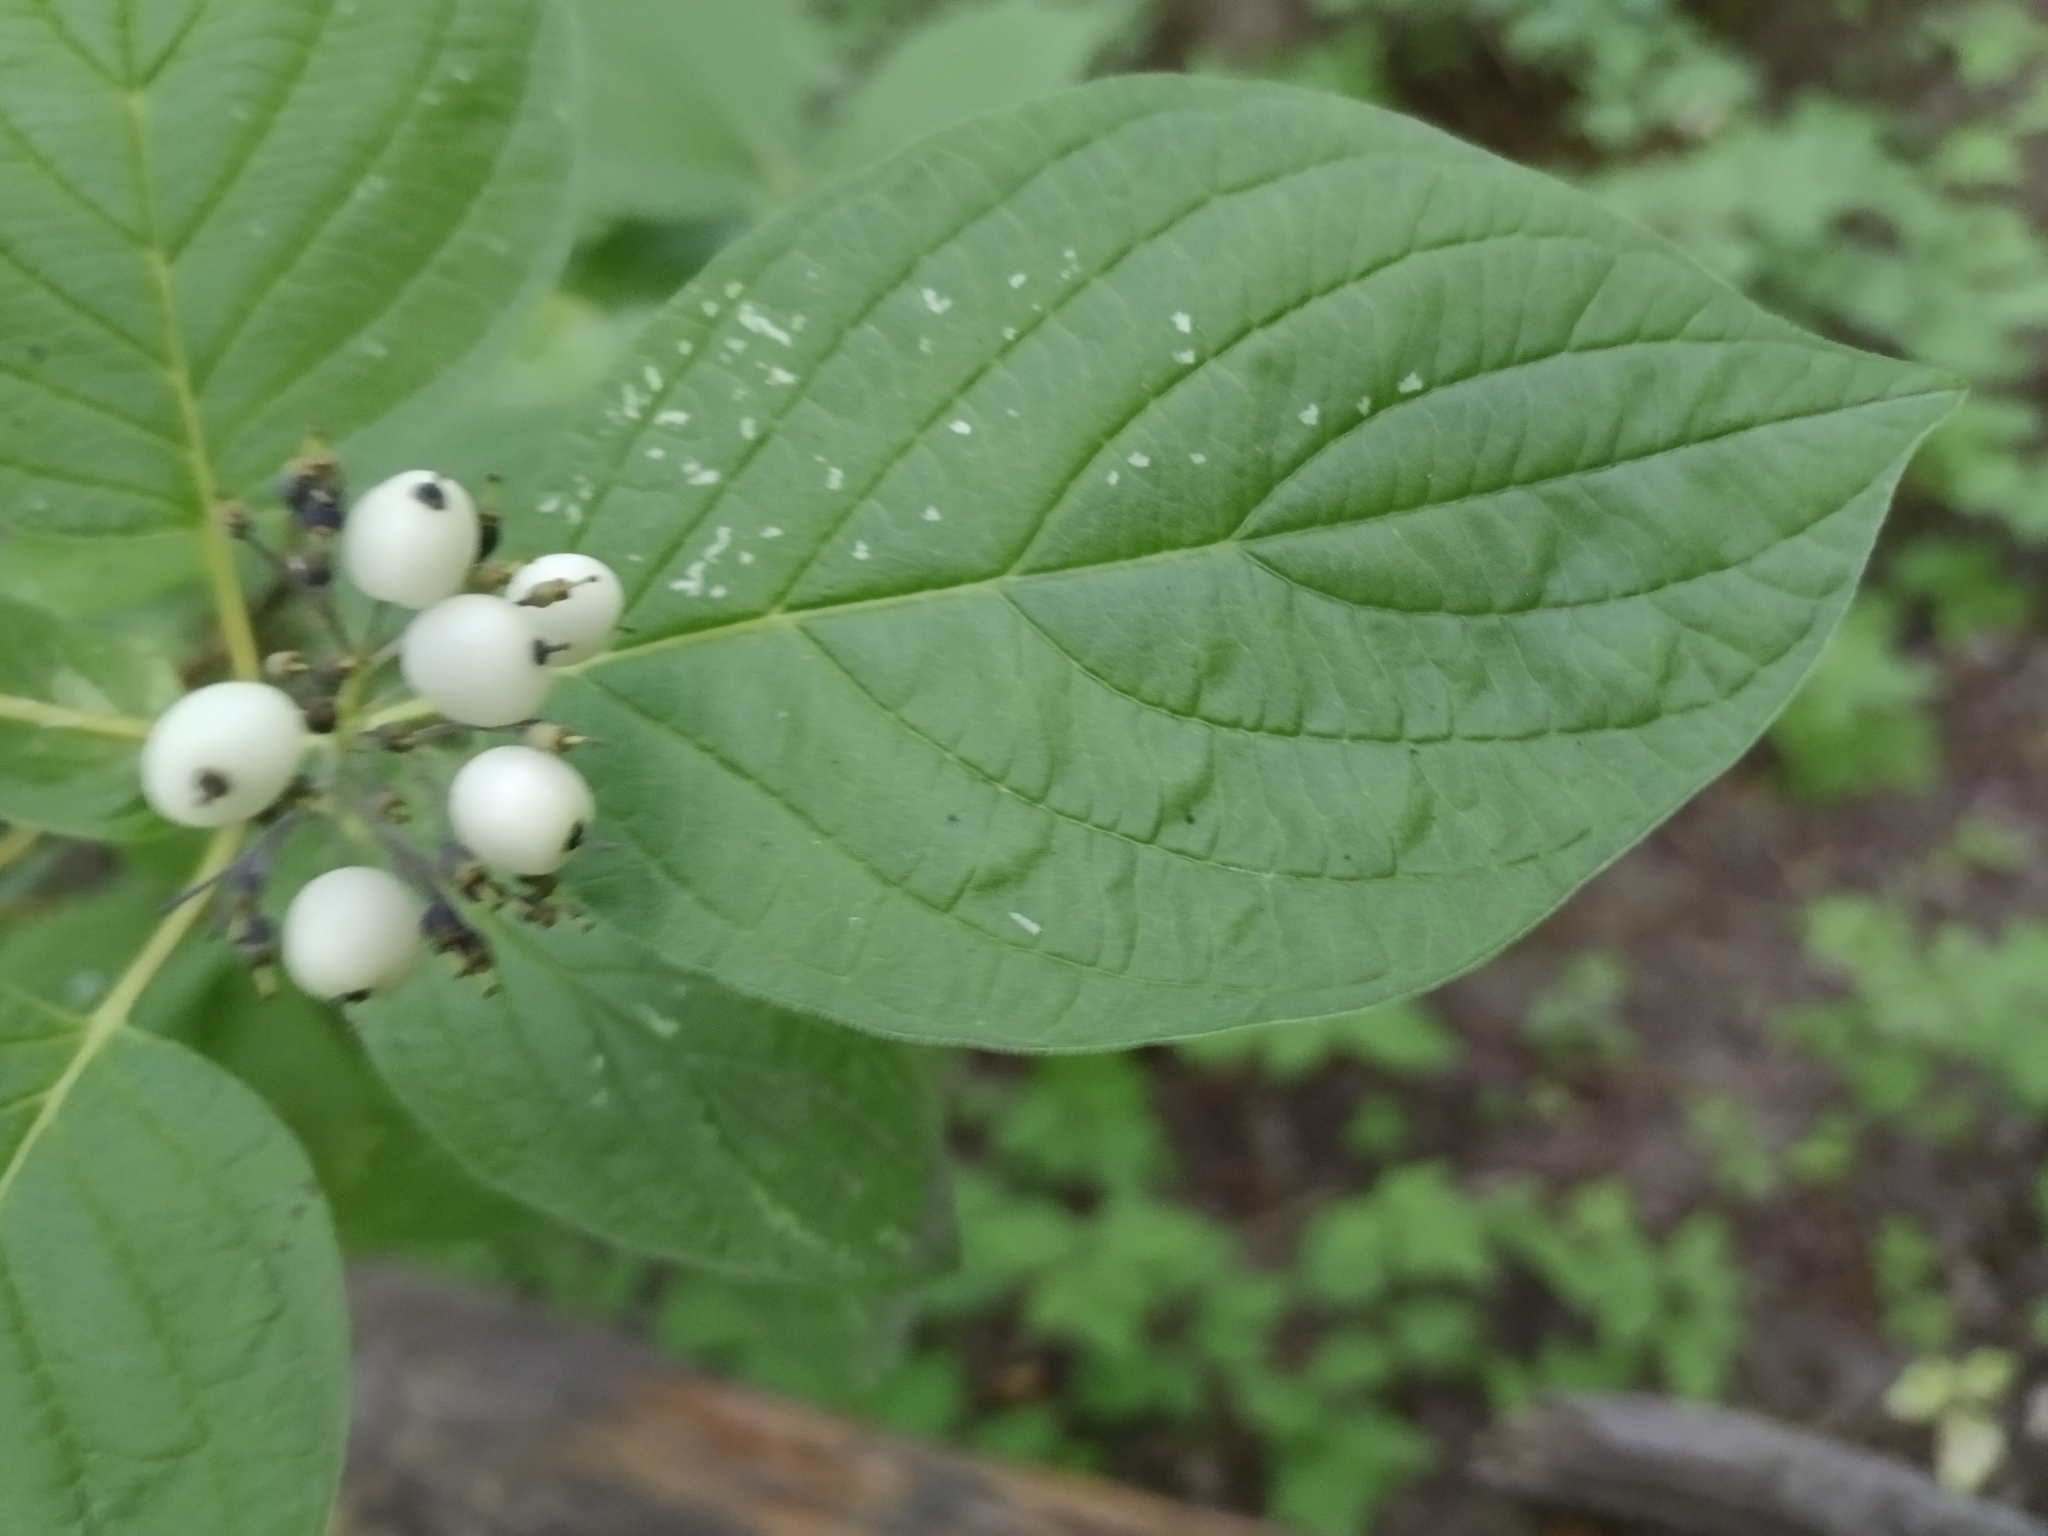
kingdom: Plantae
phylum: Tracheophyta
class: Magnoliopsida
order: Cornales
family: Cornaceae
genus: Cornus
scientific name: Cornus alba
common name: White dogwood
